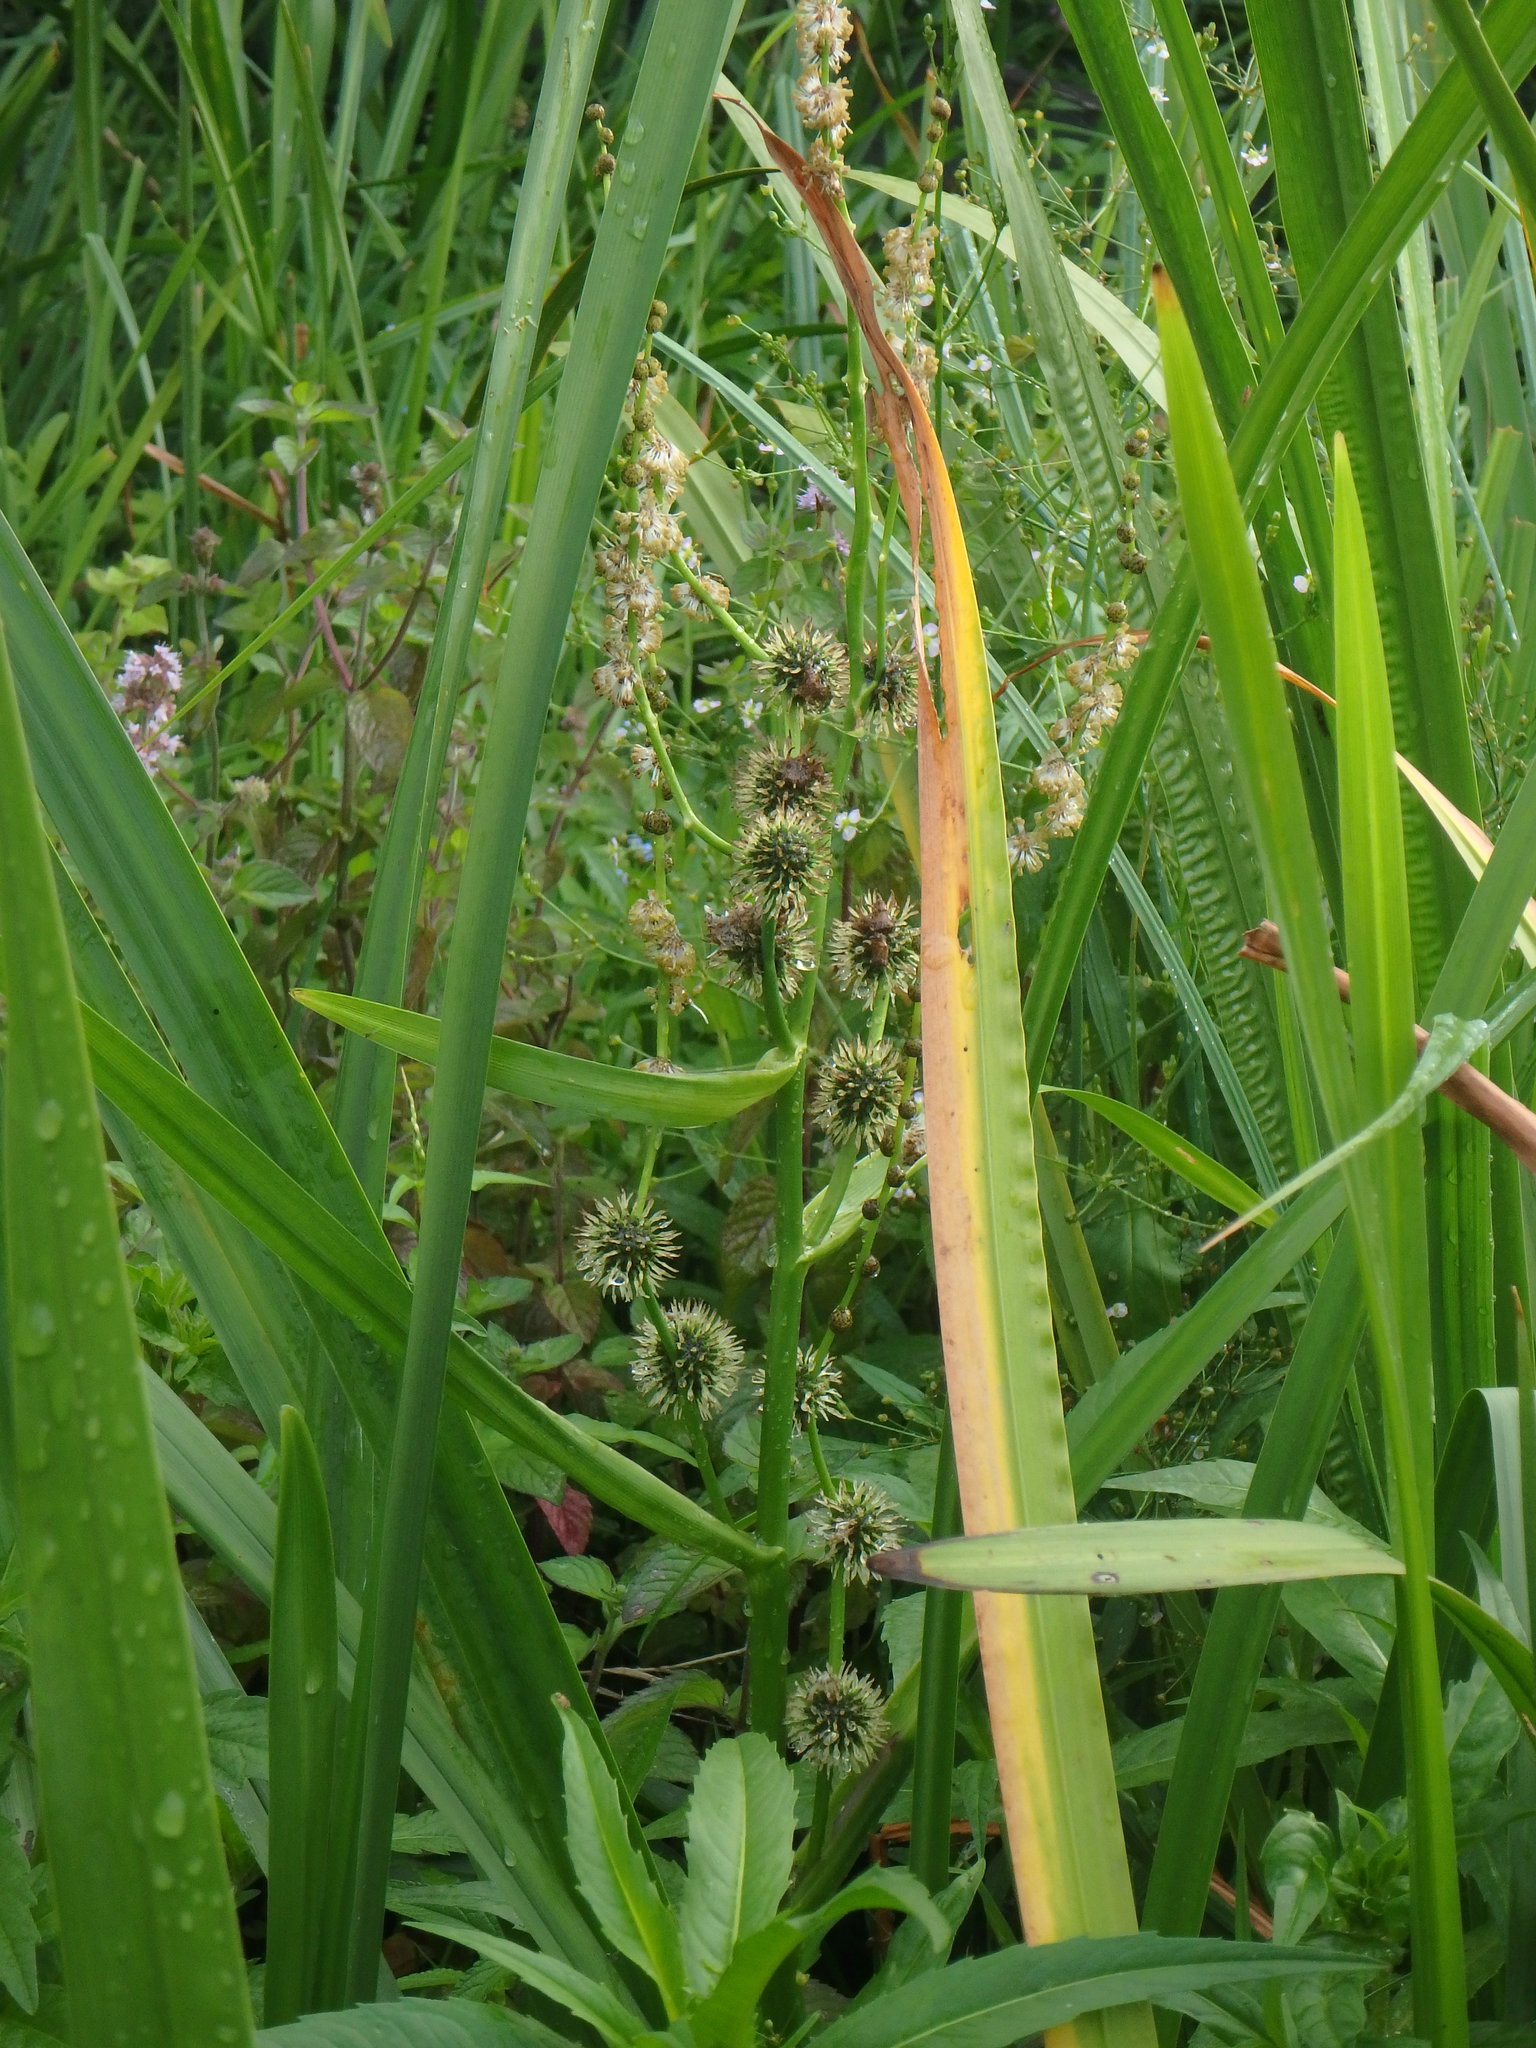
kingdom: Plantae
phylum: Tracheophyta
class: Liliopsida
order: Poales
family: Typhaceae
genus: Sparganium
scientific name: Sparganium erectum
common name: Branched bur-reed
